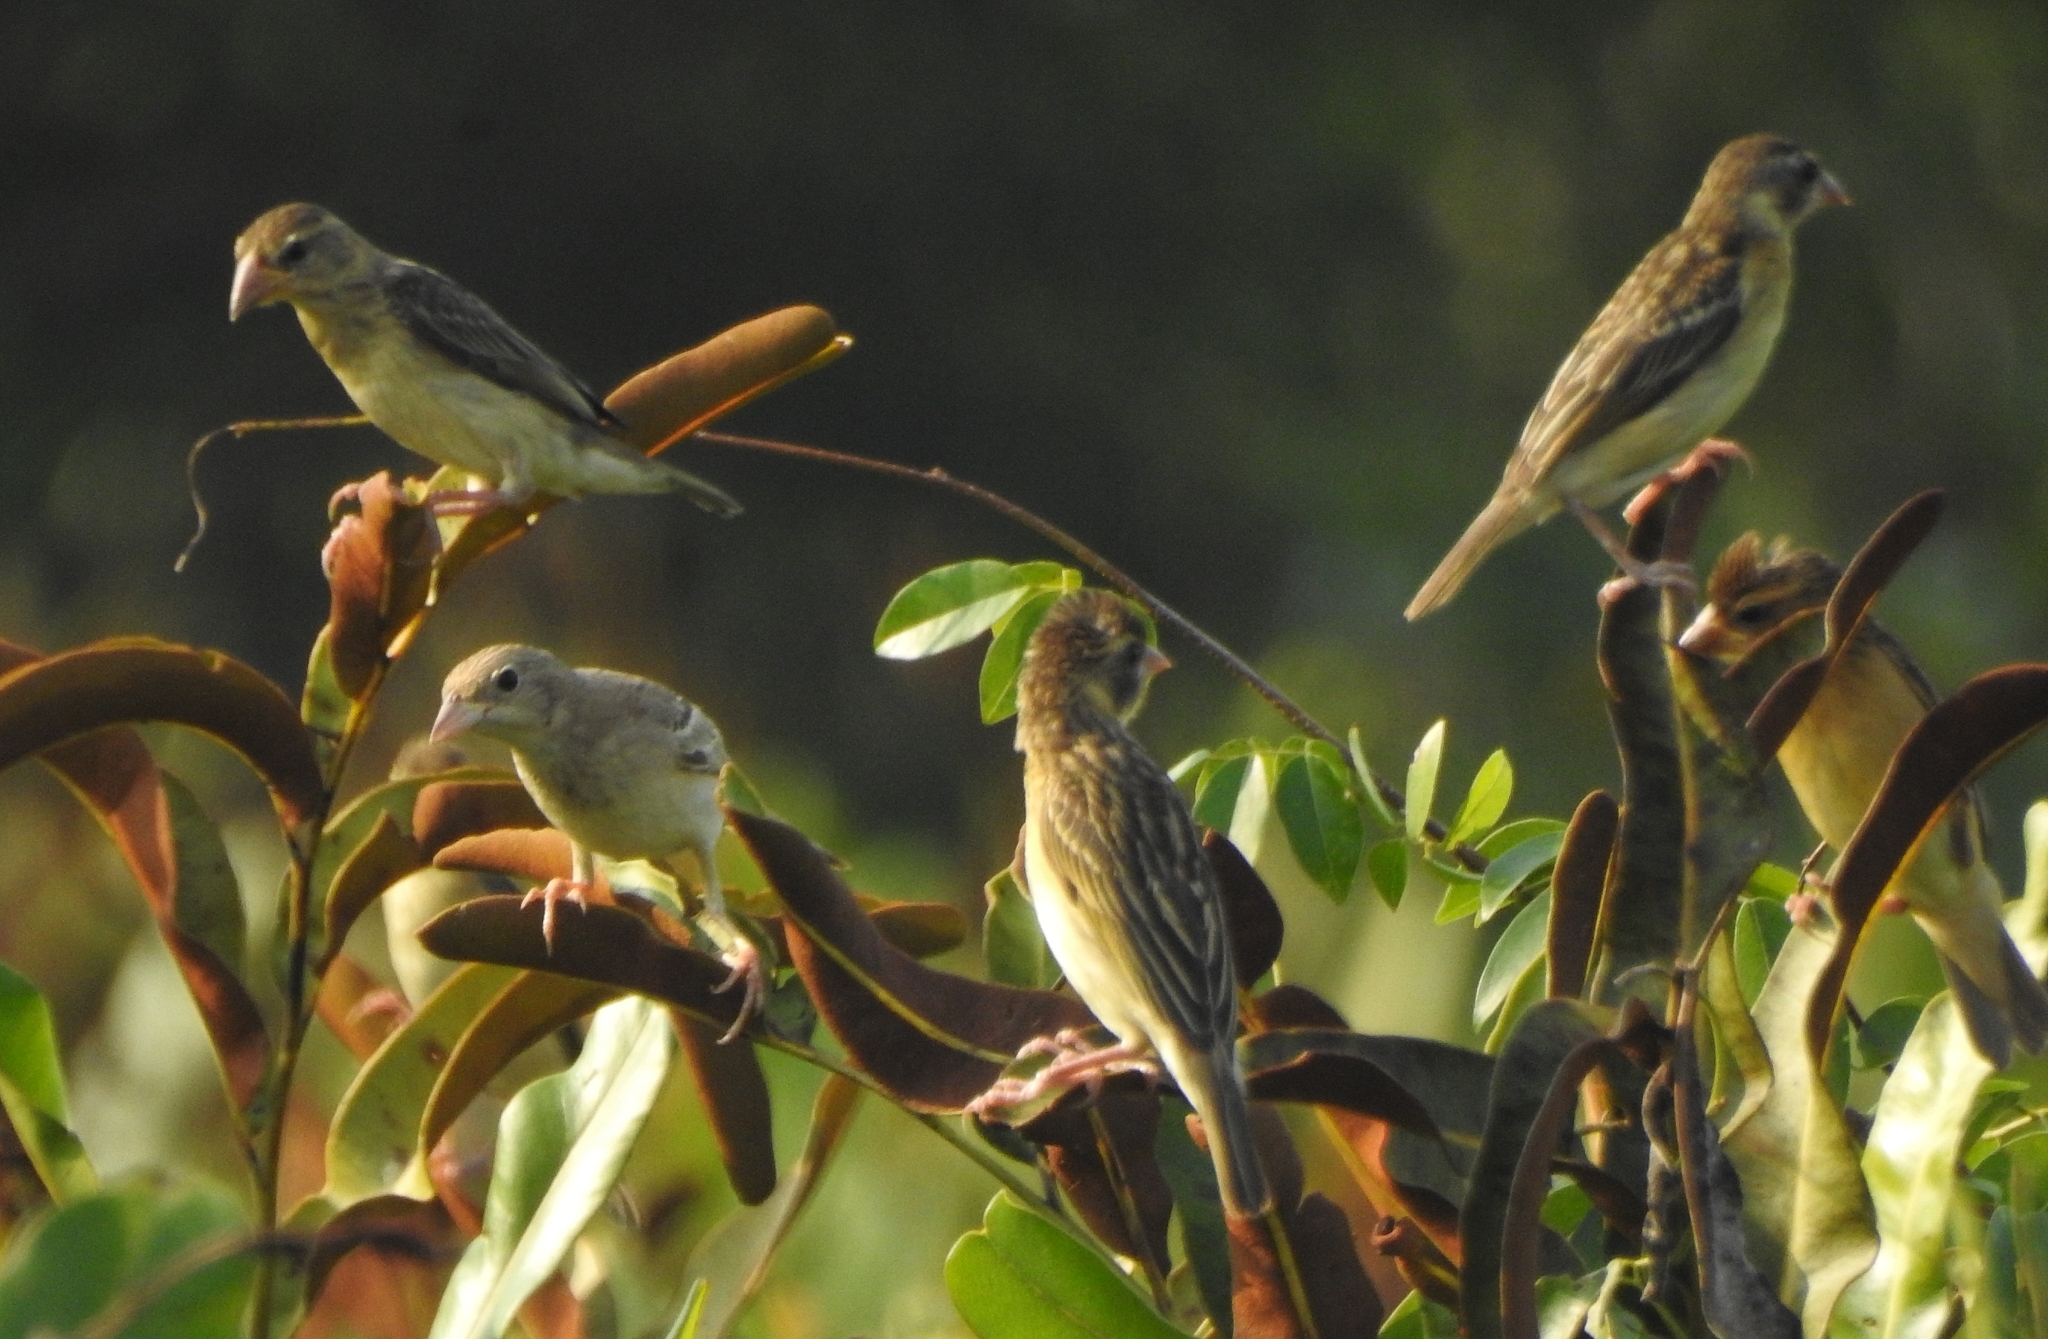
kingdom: Animalia
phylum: Chordata
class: Aves
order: Passeriformes
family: Ploceidae
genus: Ploceus
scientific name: Ploceus philippinus
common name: Baya weaver
